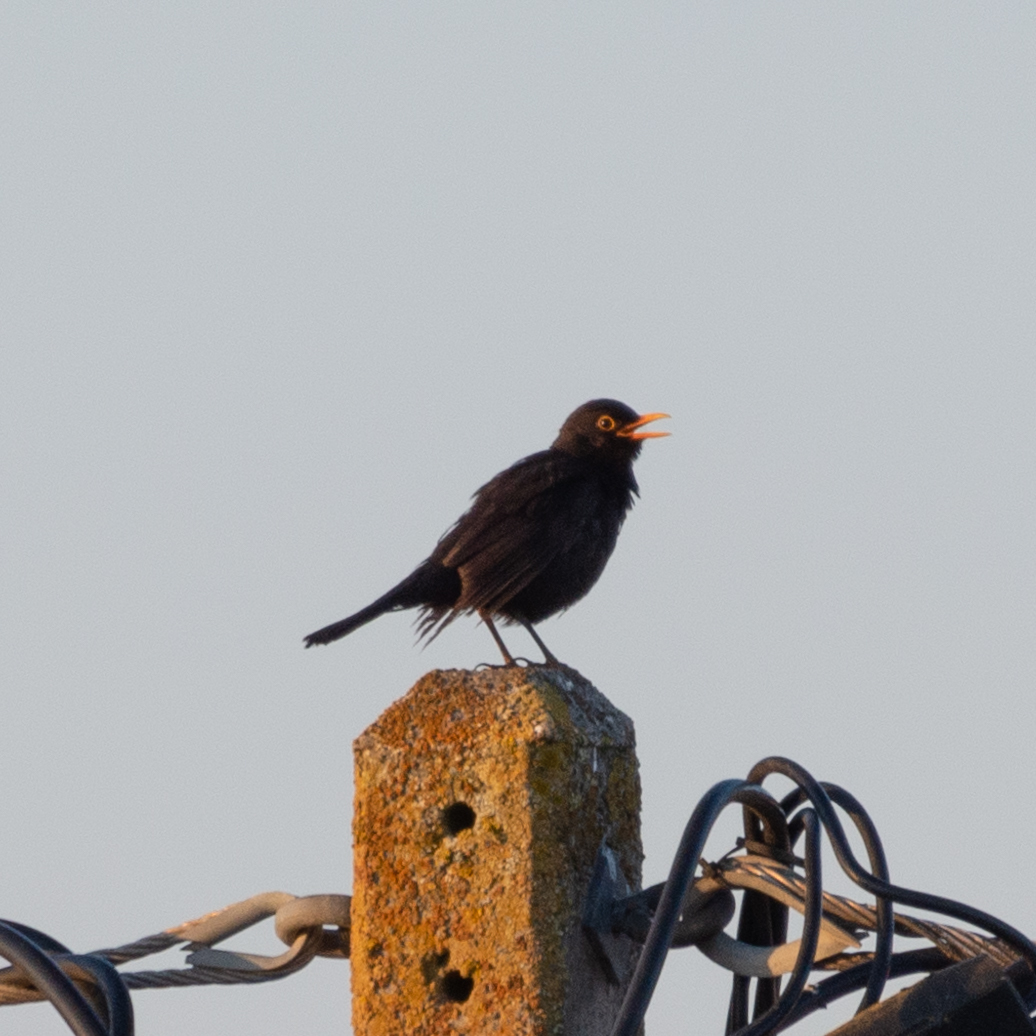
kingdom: Animalia
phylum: Chordata
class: Aves
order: Passeriformes
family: Turdidae
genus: Turdus
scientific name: Turdus merula
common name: Common blackbird
